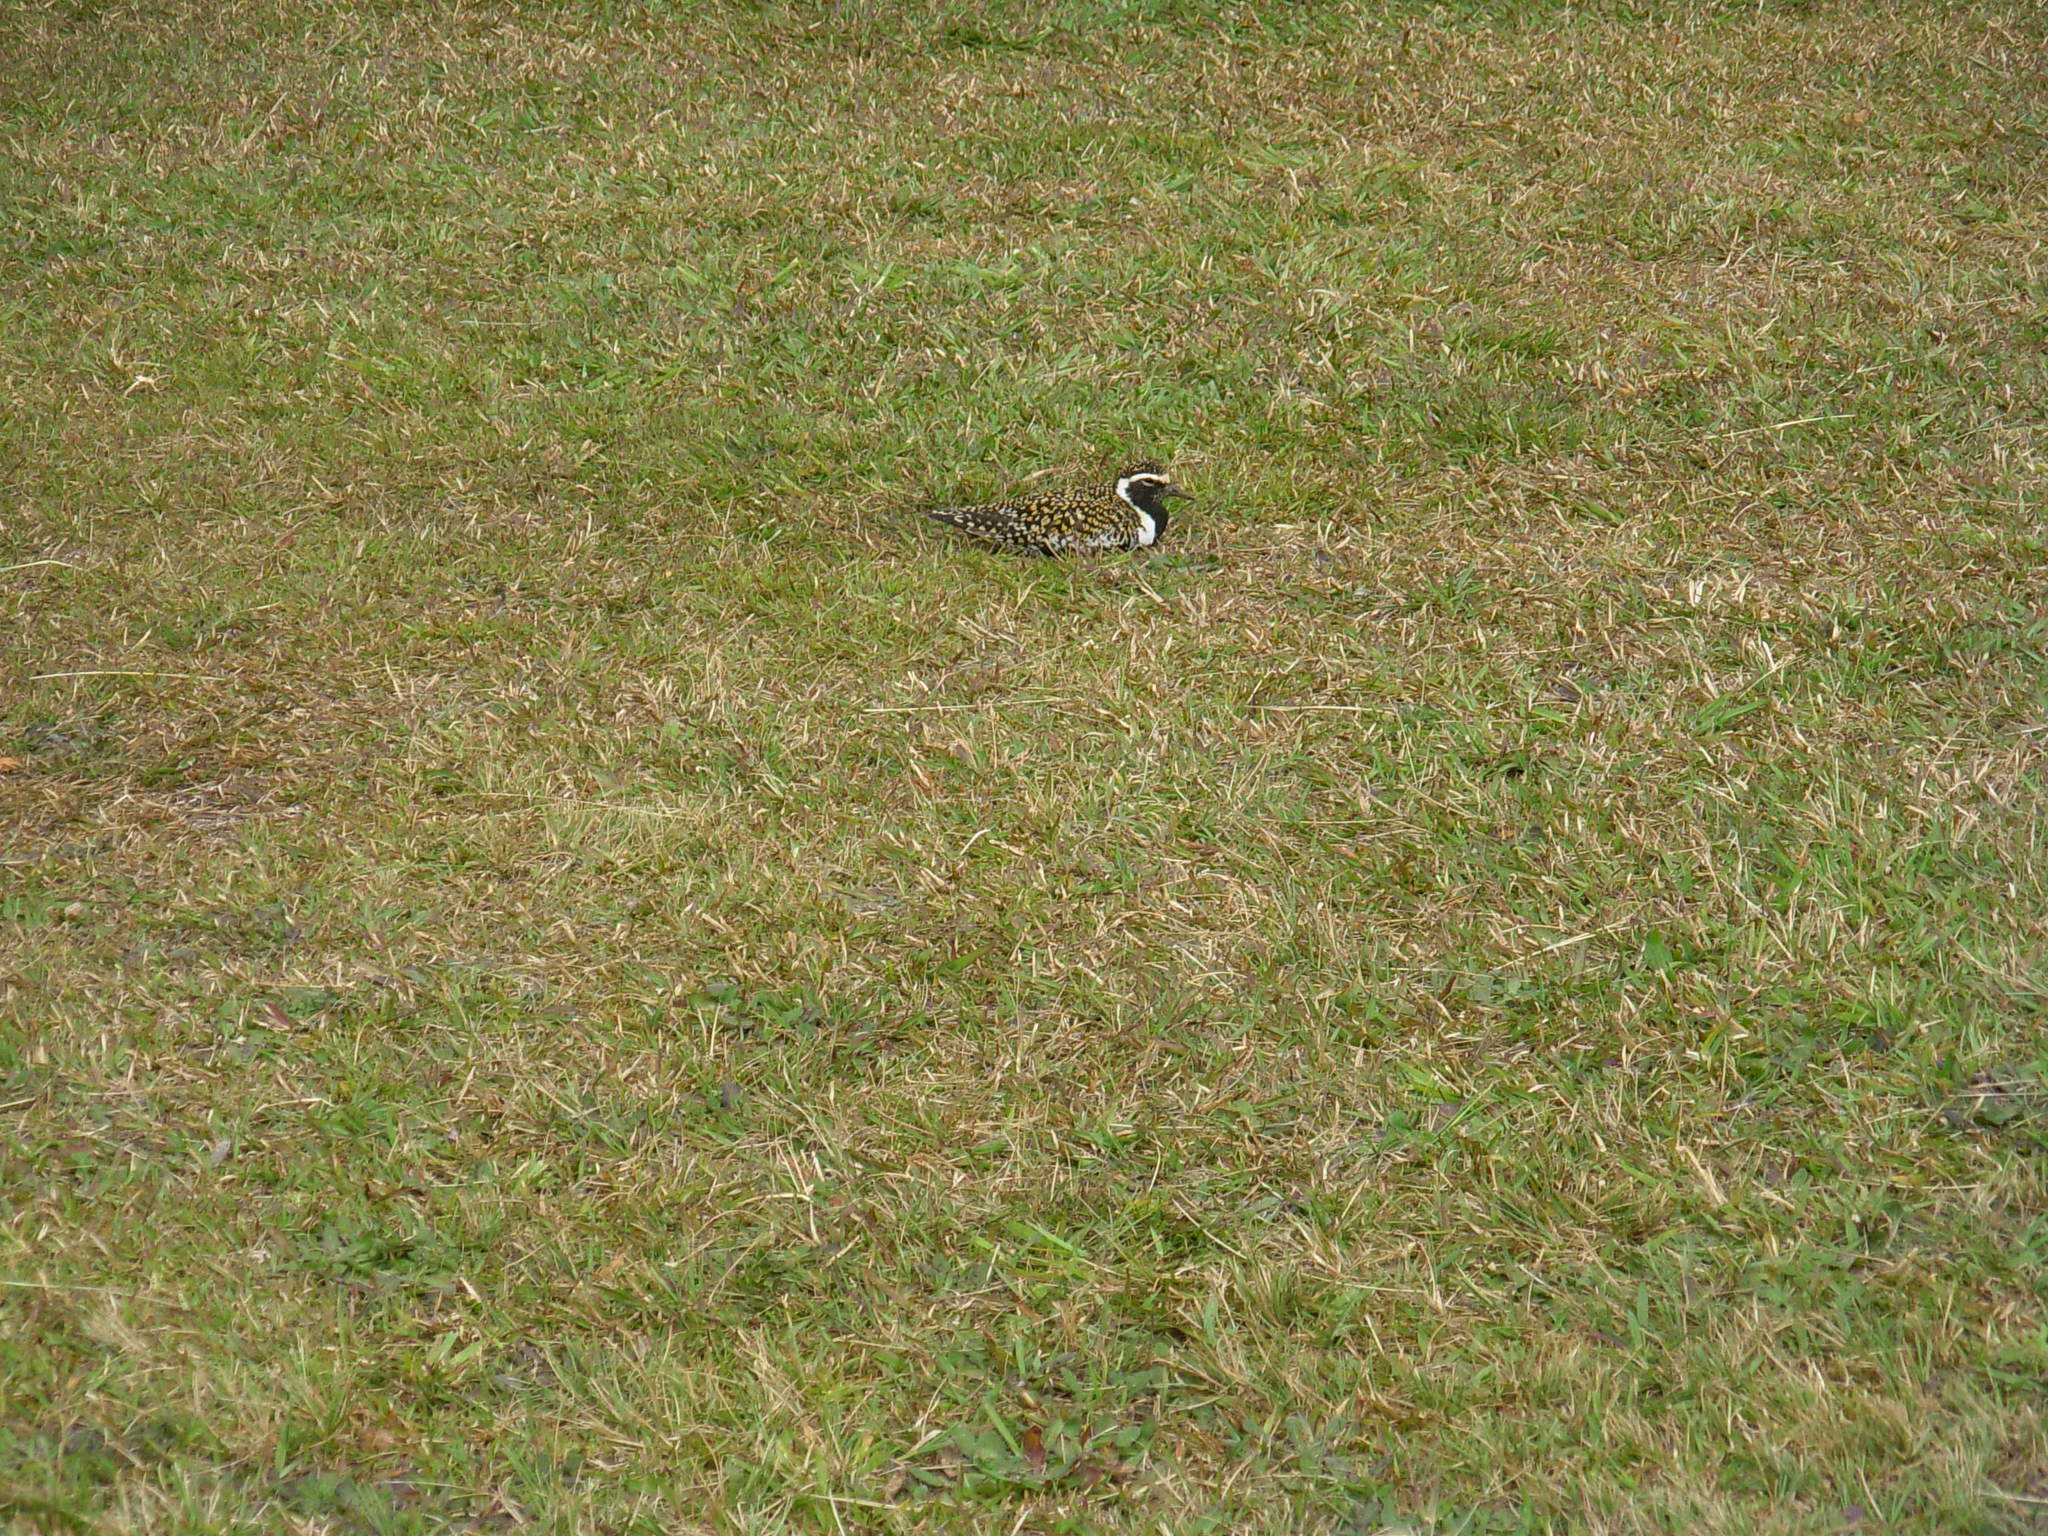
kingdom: Animalia
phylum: Chordata
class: Aves
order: Charadriiformes
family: Charadriidae
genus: Pluvialis
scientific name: Pluvialis fulva
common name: Pacific golden plover
